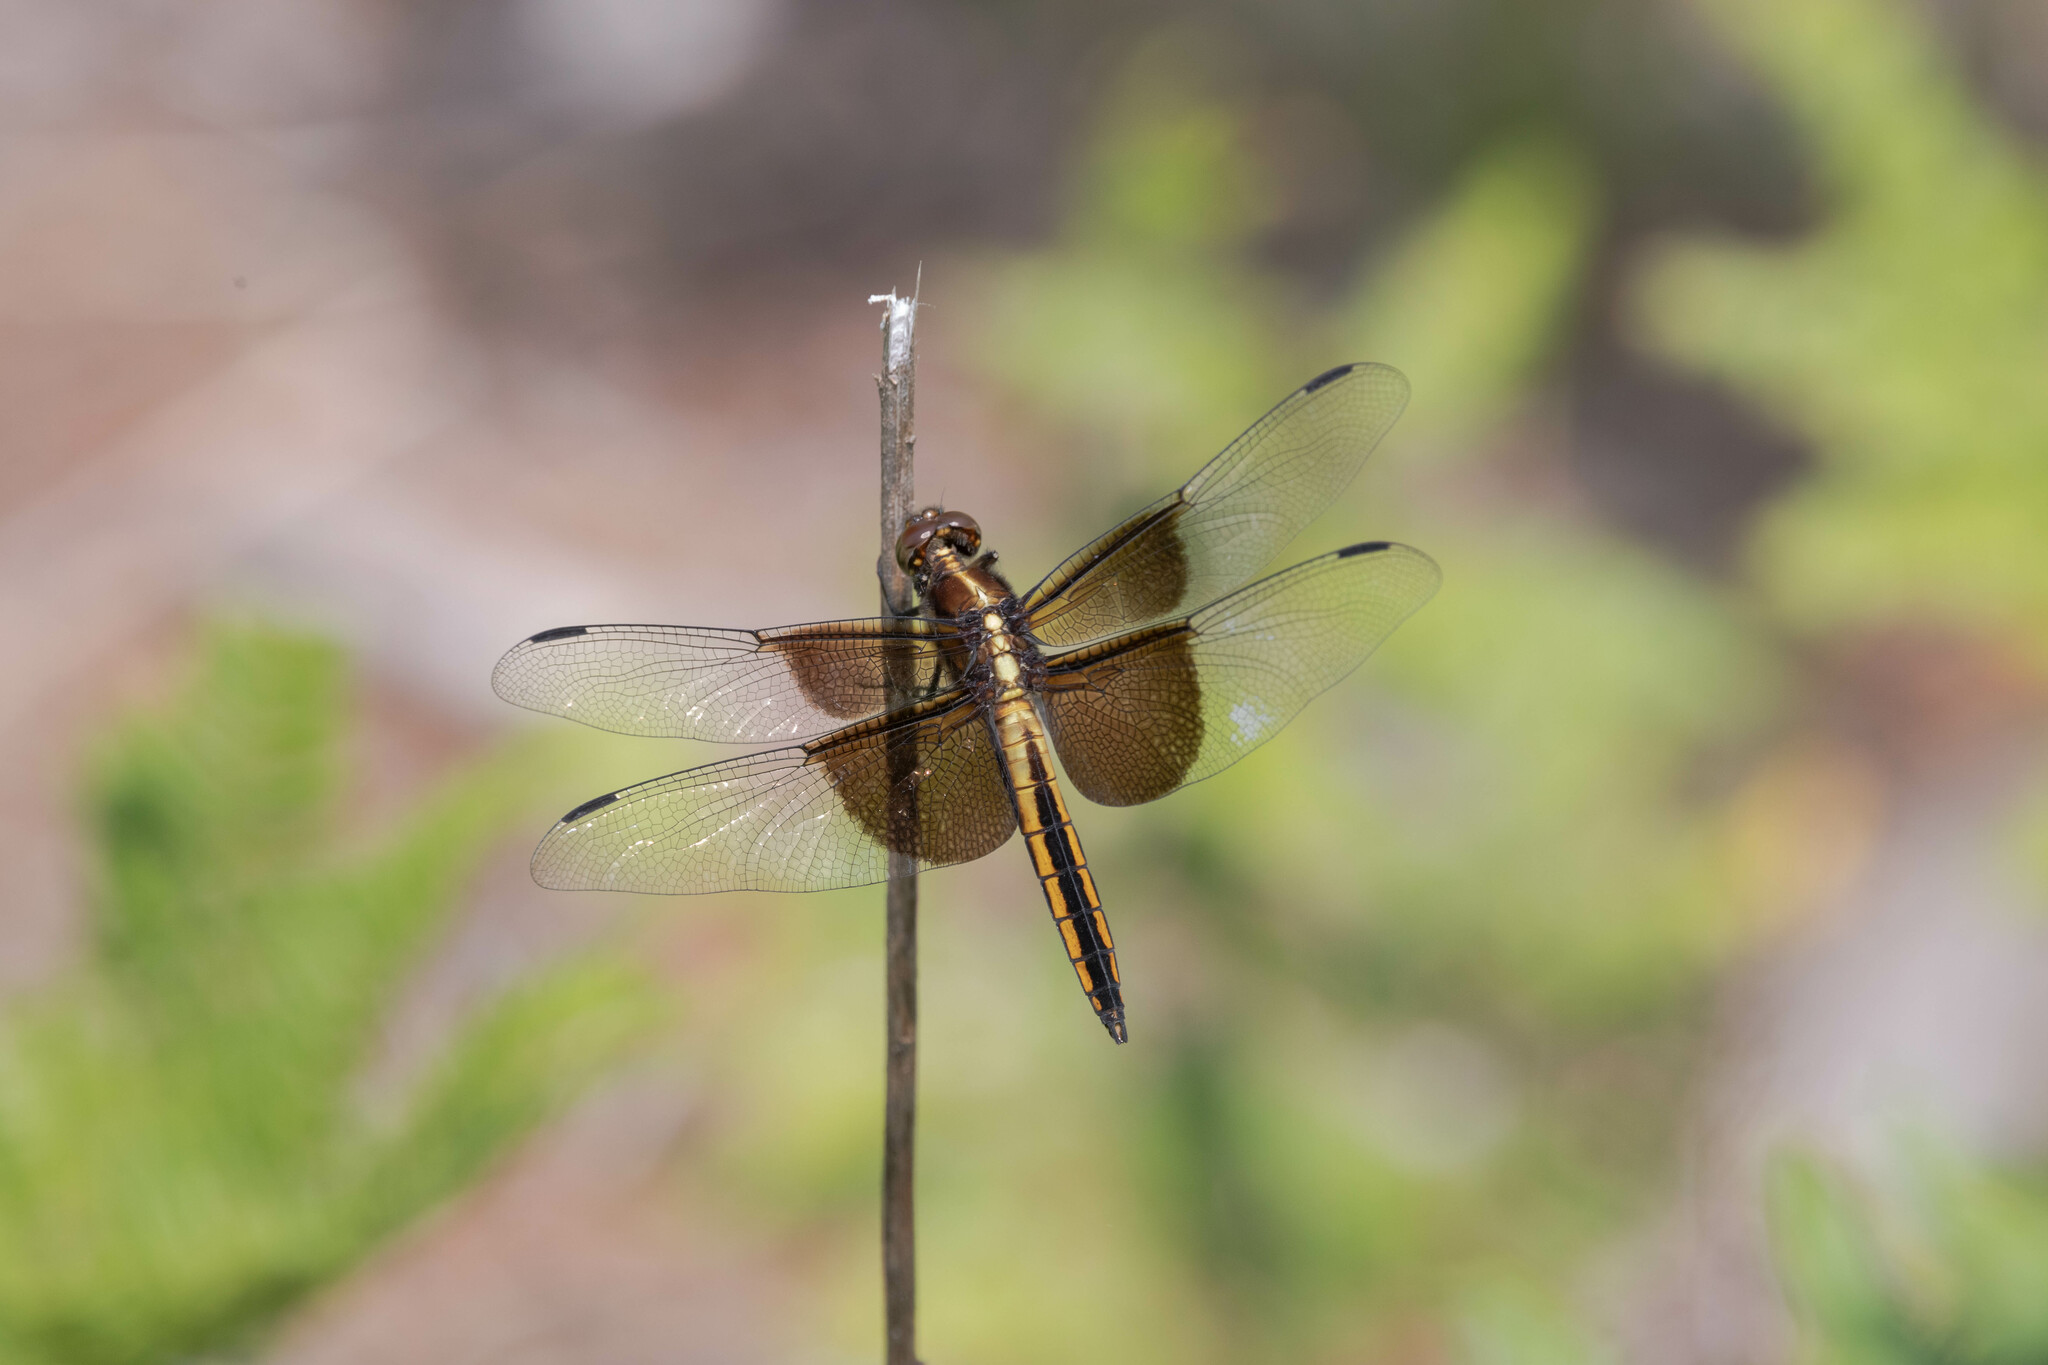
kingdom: Animalia
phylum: Arthropoda
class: Insecta
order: Odonata
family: Libellulidae
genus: Libellula
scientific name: Libellula luctuosa
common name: Widow skimmer
